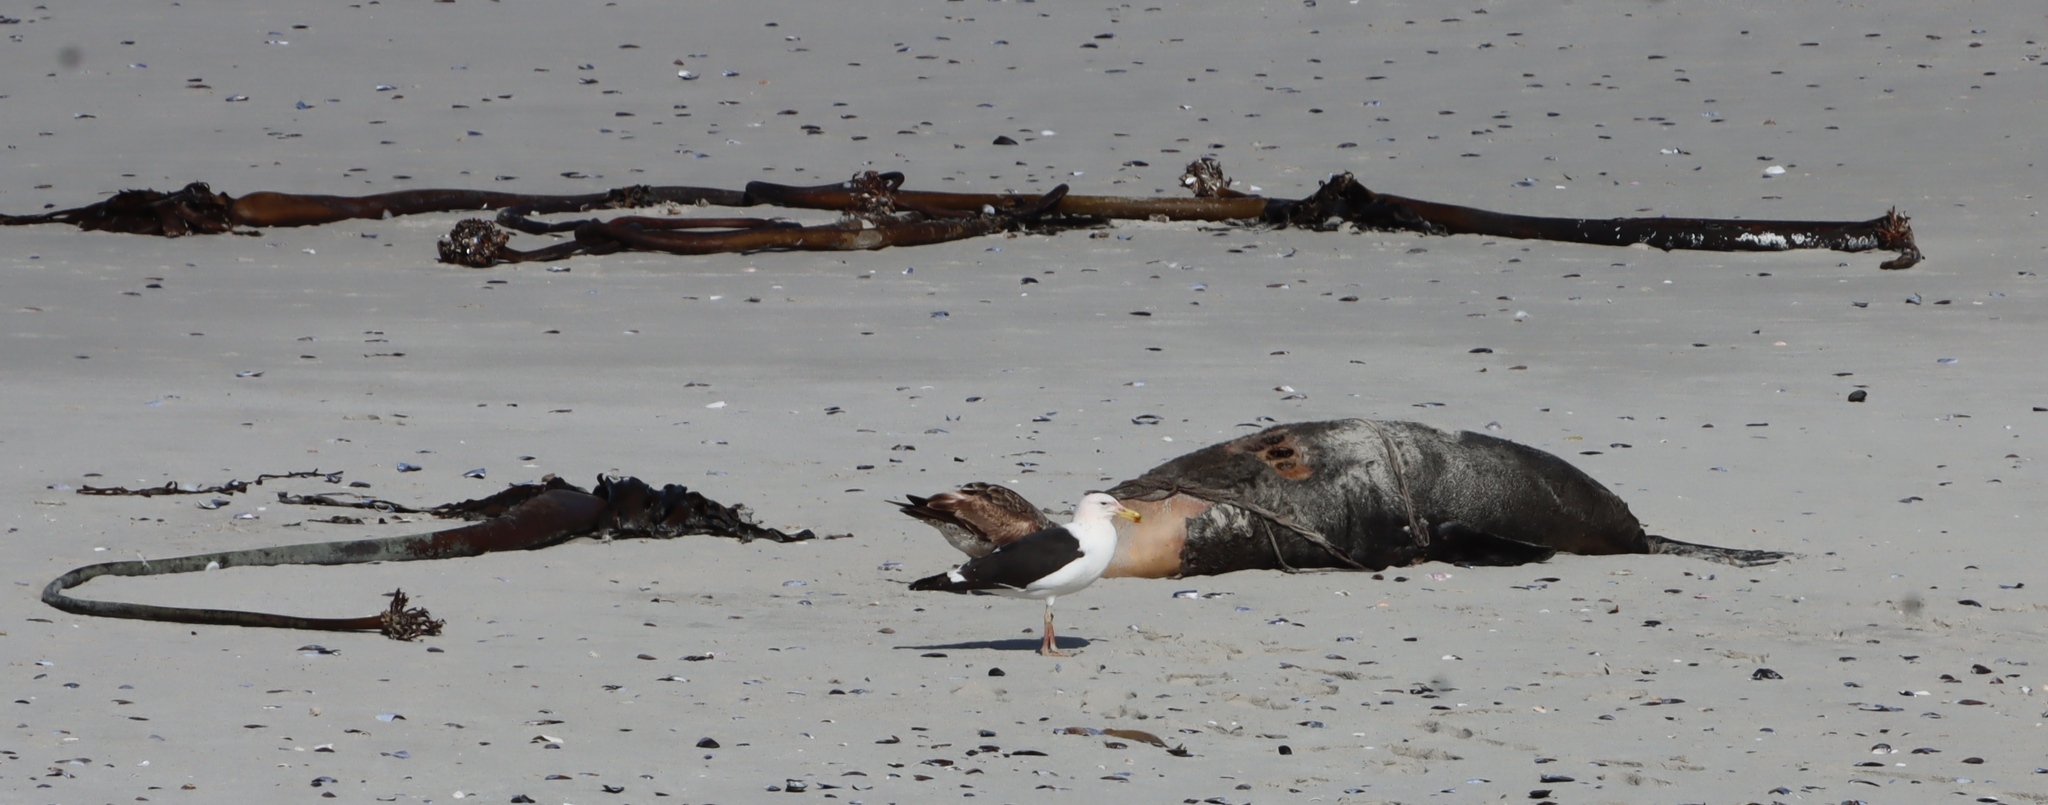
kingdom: Animalia
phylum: Chordata
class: Aves
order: Charadriiformes
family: Laridae
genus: Larus
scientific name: Larus dominicanus
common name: Kelp gull
